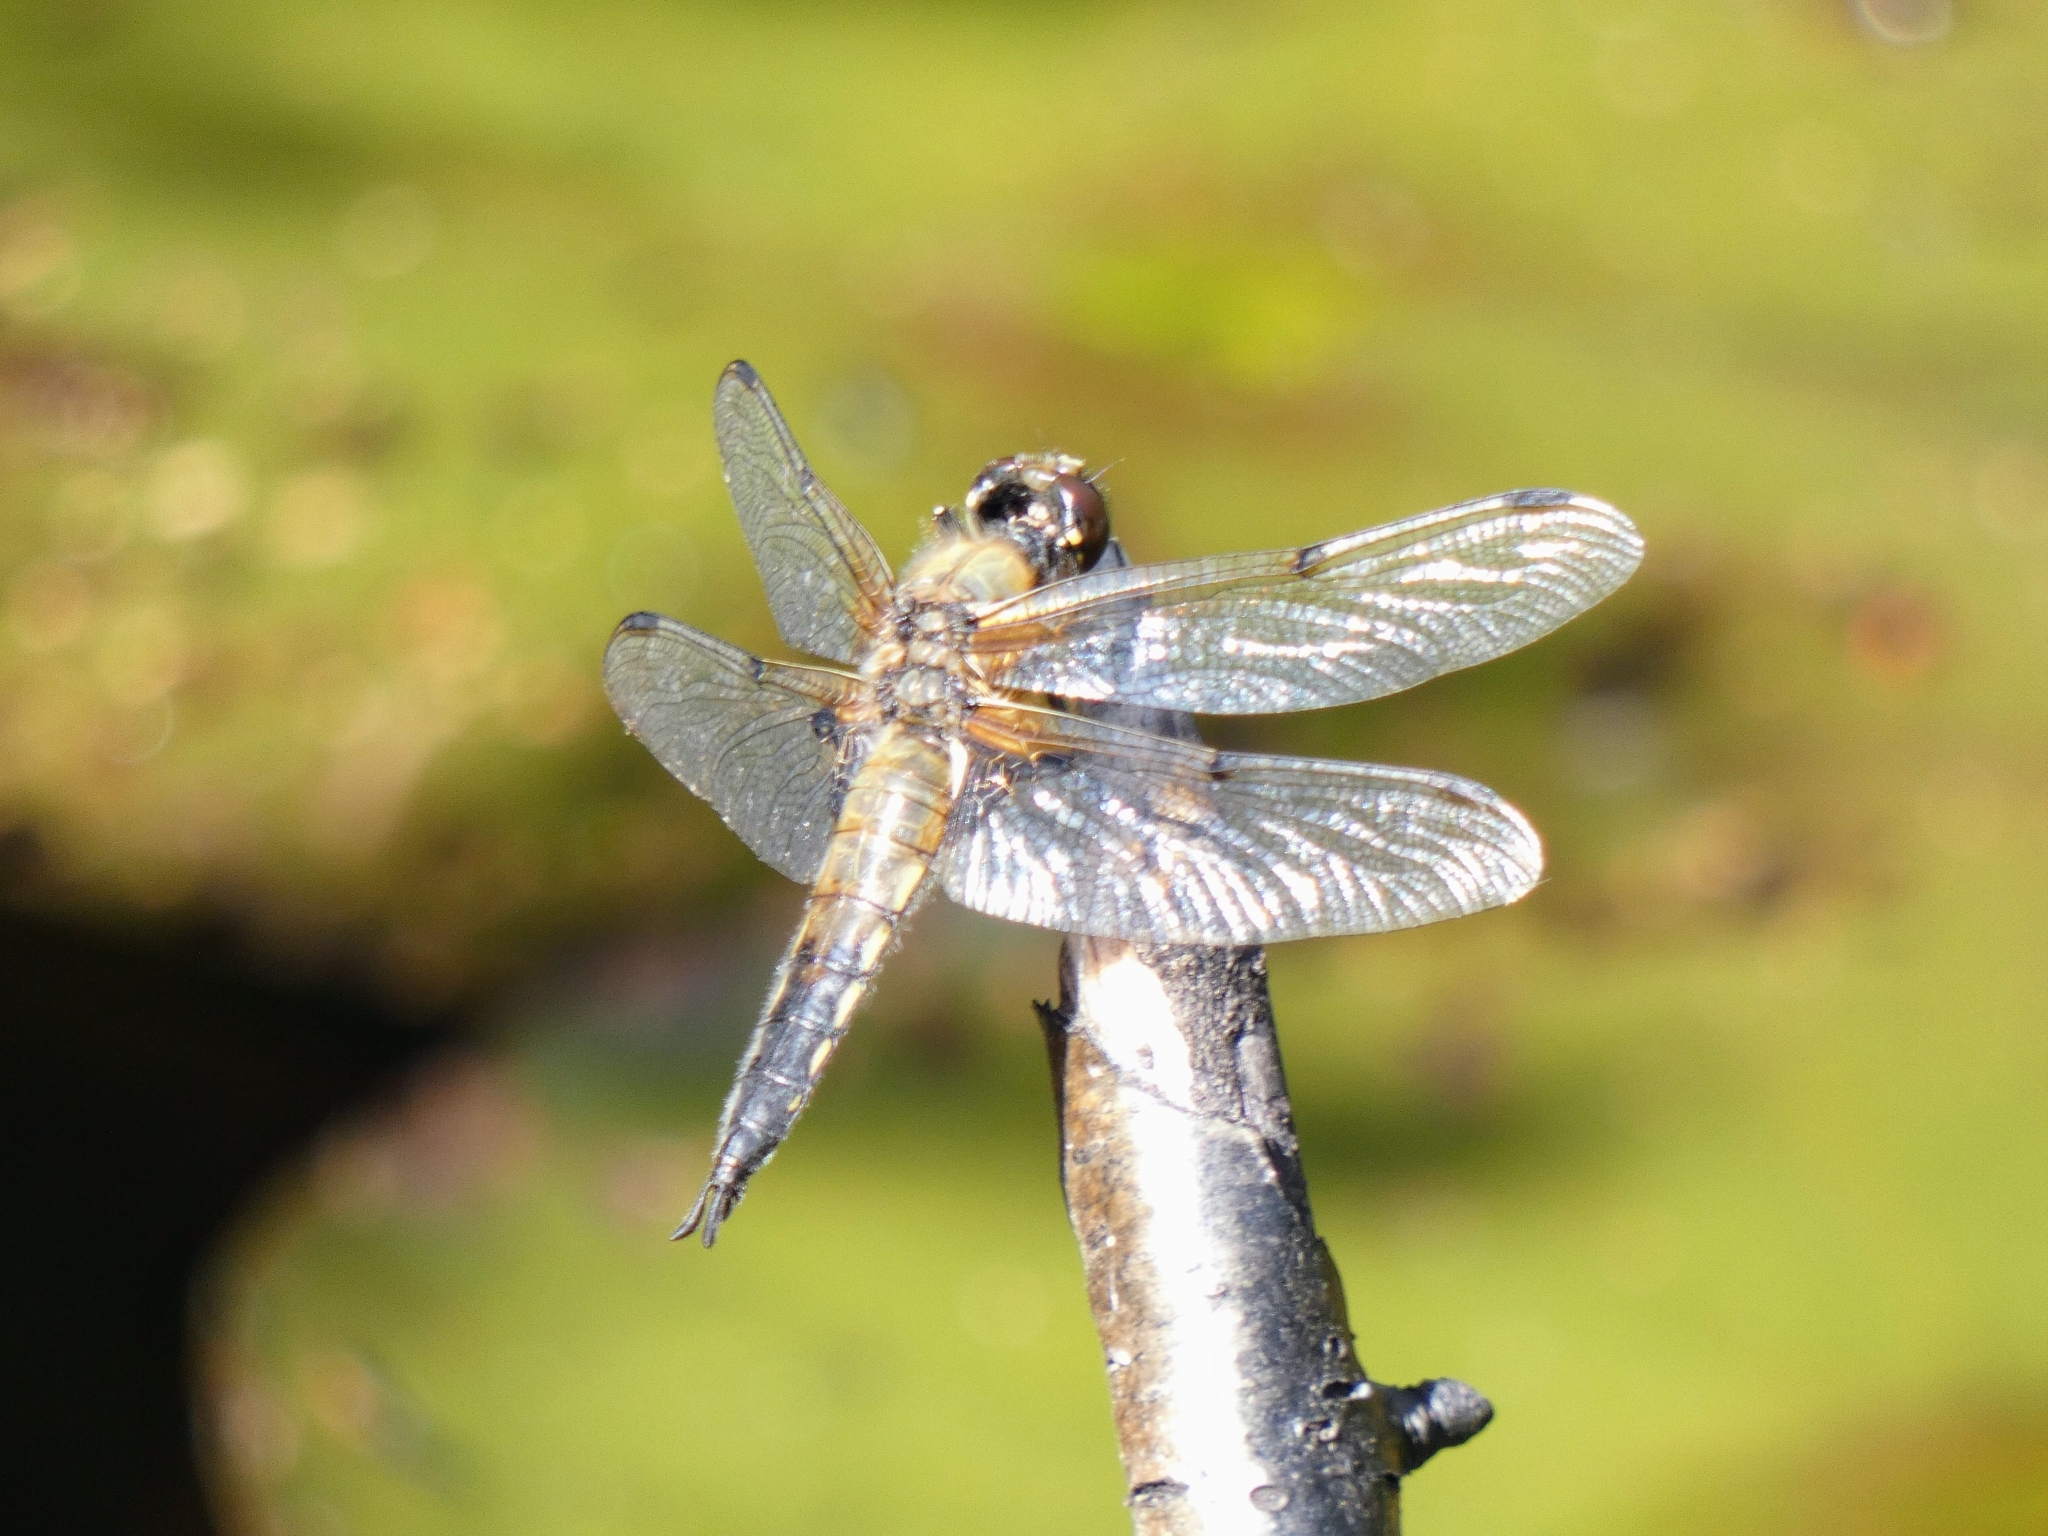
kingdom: Animalia
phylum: Arthropoda
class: Insecta
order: Odonata
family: Libellulidae
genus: Libellula
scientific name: Libellula quadrimaculata
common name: Four-spotted chaser
